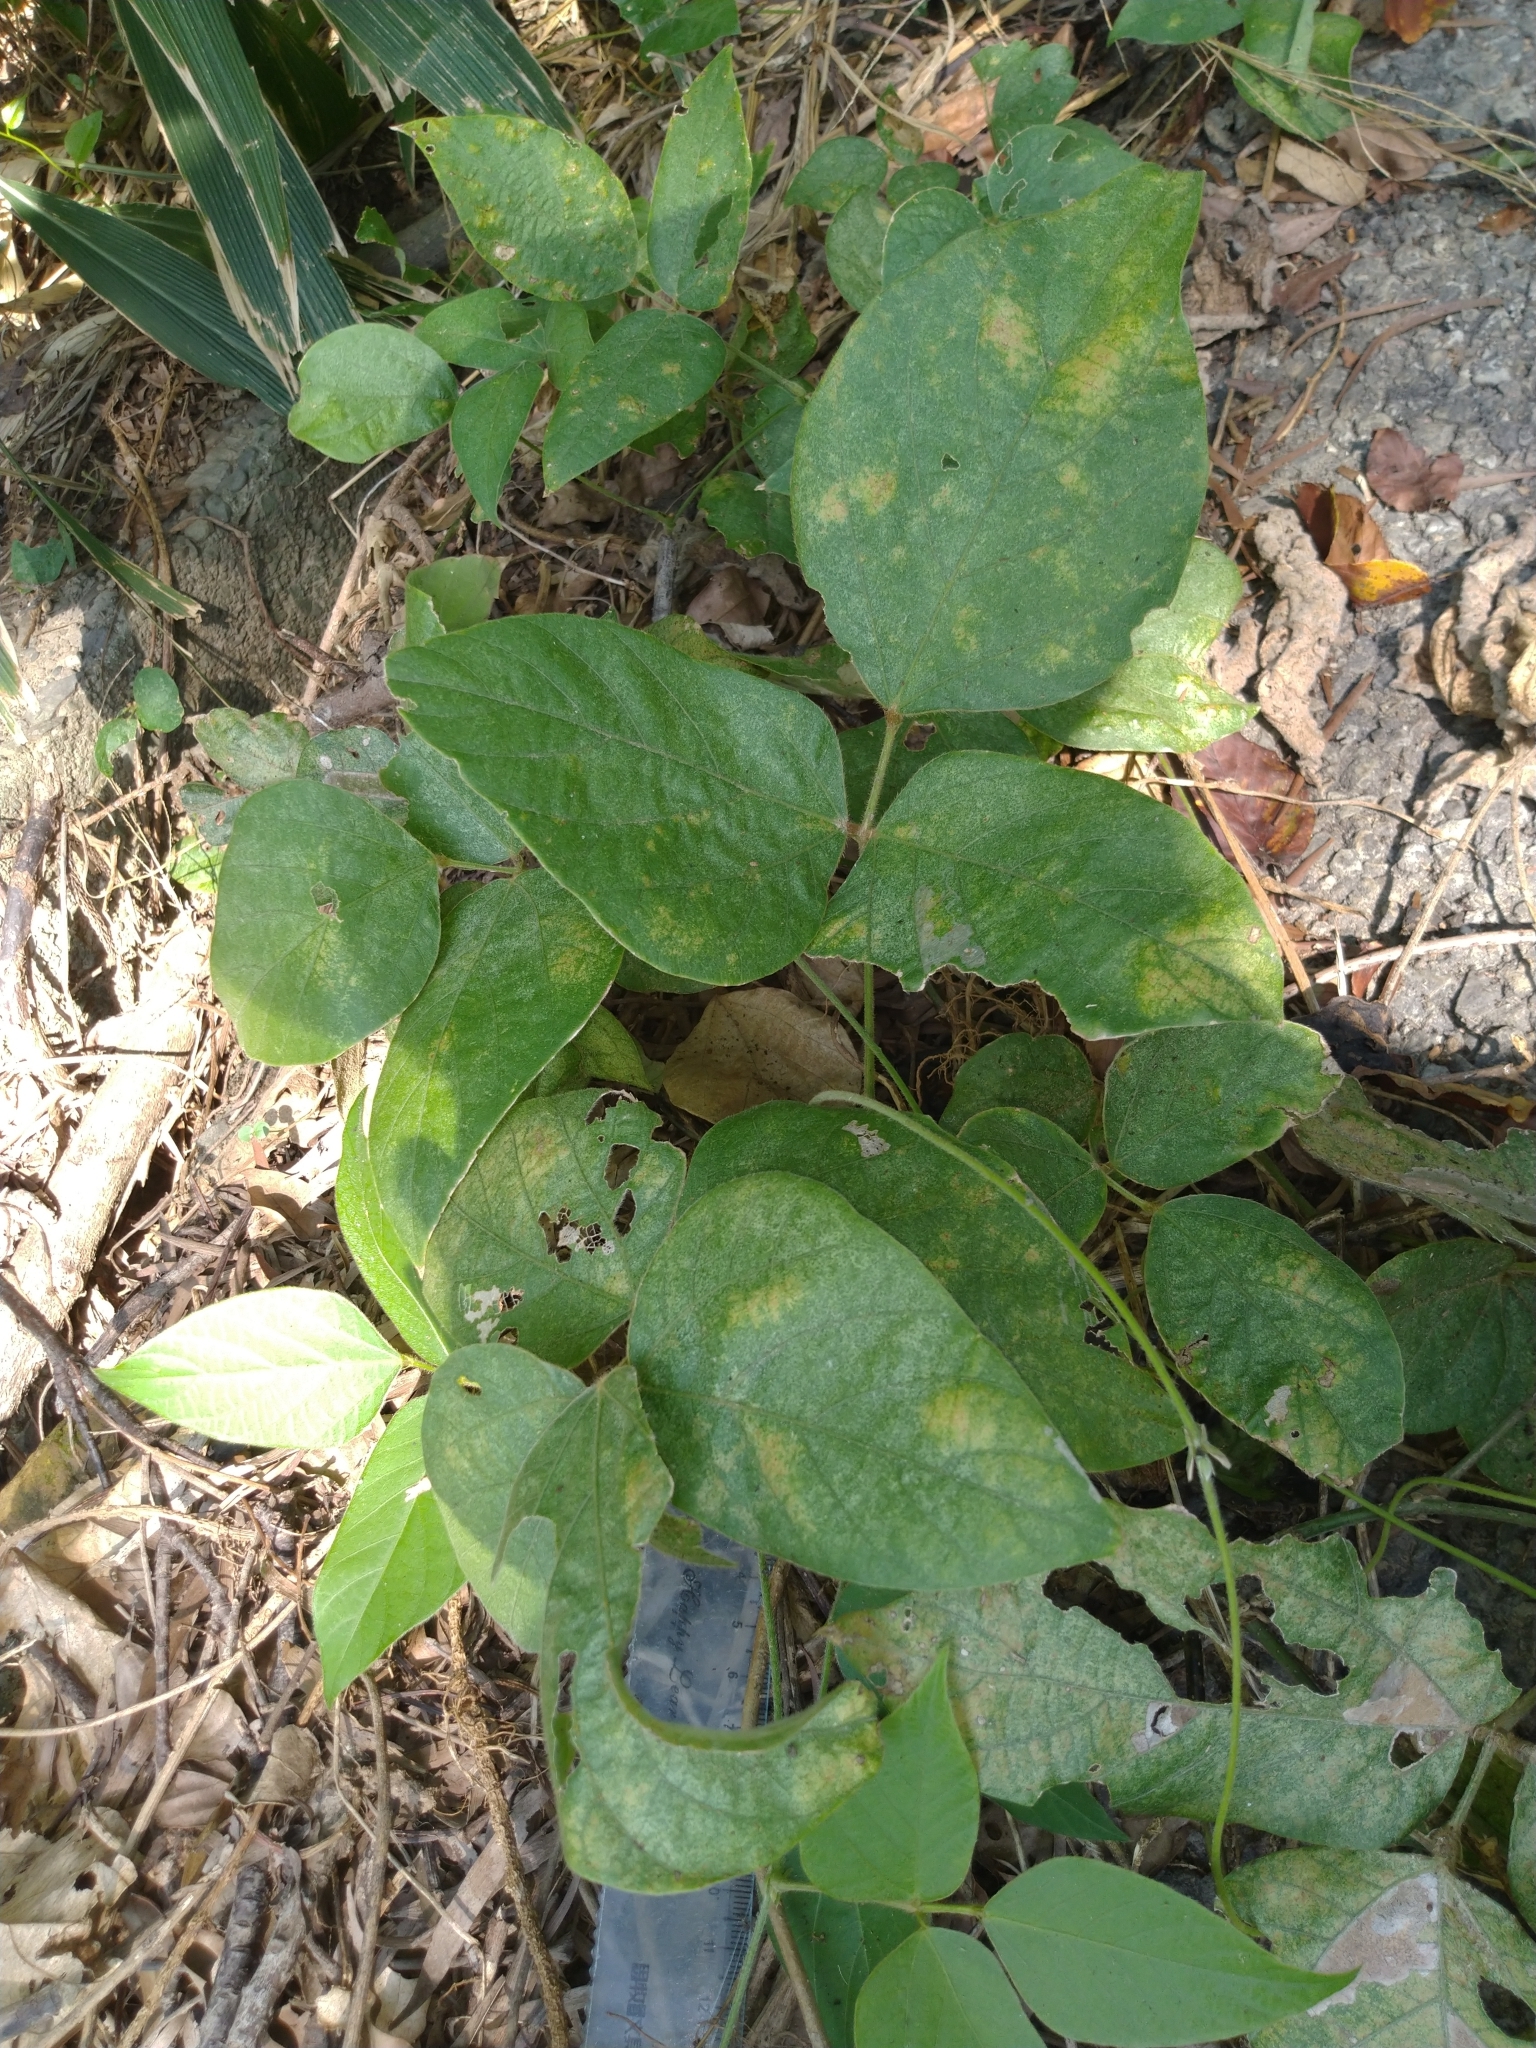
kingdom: Plantae
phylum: Tracheophyta
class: Magnoliopsida
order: Fabales
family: Fabaceae
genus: Pueraria
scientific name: Pueraria montana
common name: Kudzu
